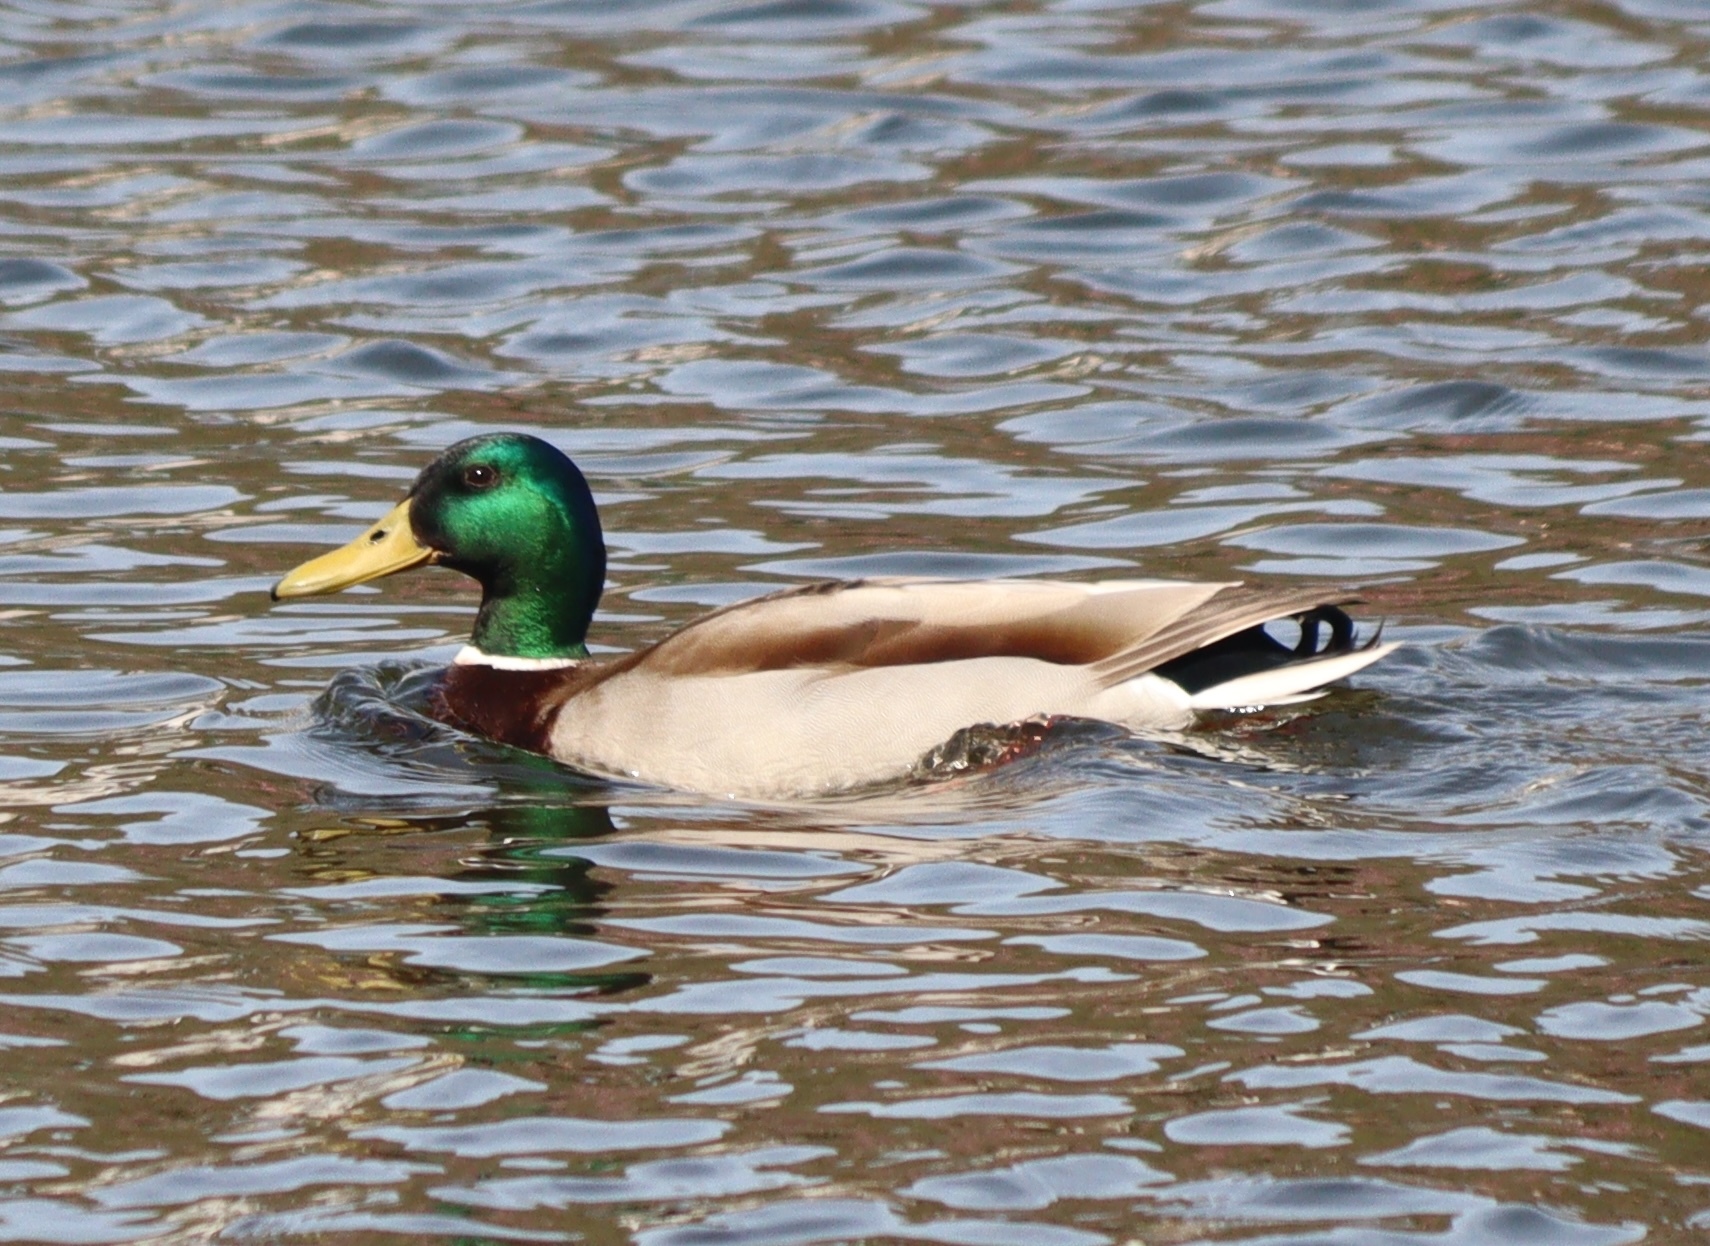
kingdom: Animalia
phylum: Chordata
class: Aves
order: Anseriformes
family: Anatidae
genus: Anas
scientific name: Anas platyrhynchos
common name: Mallard
